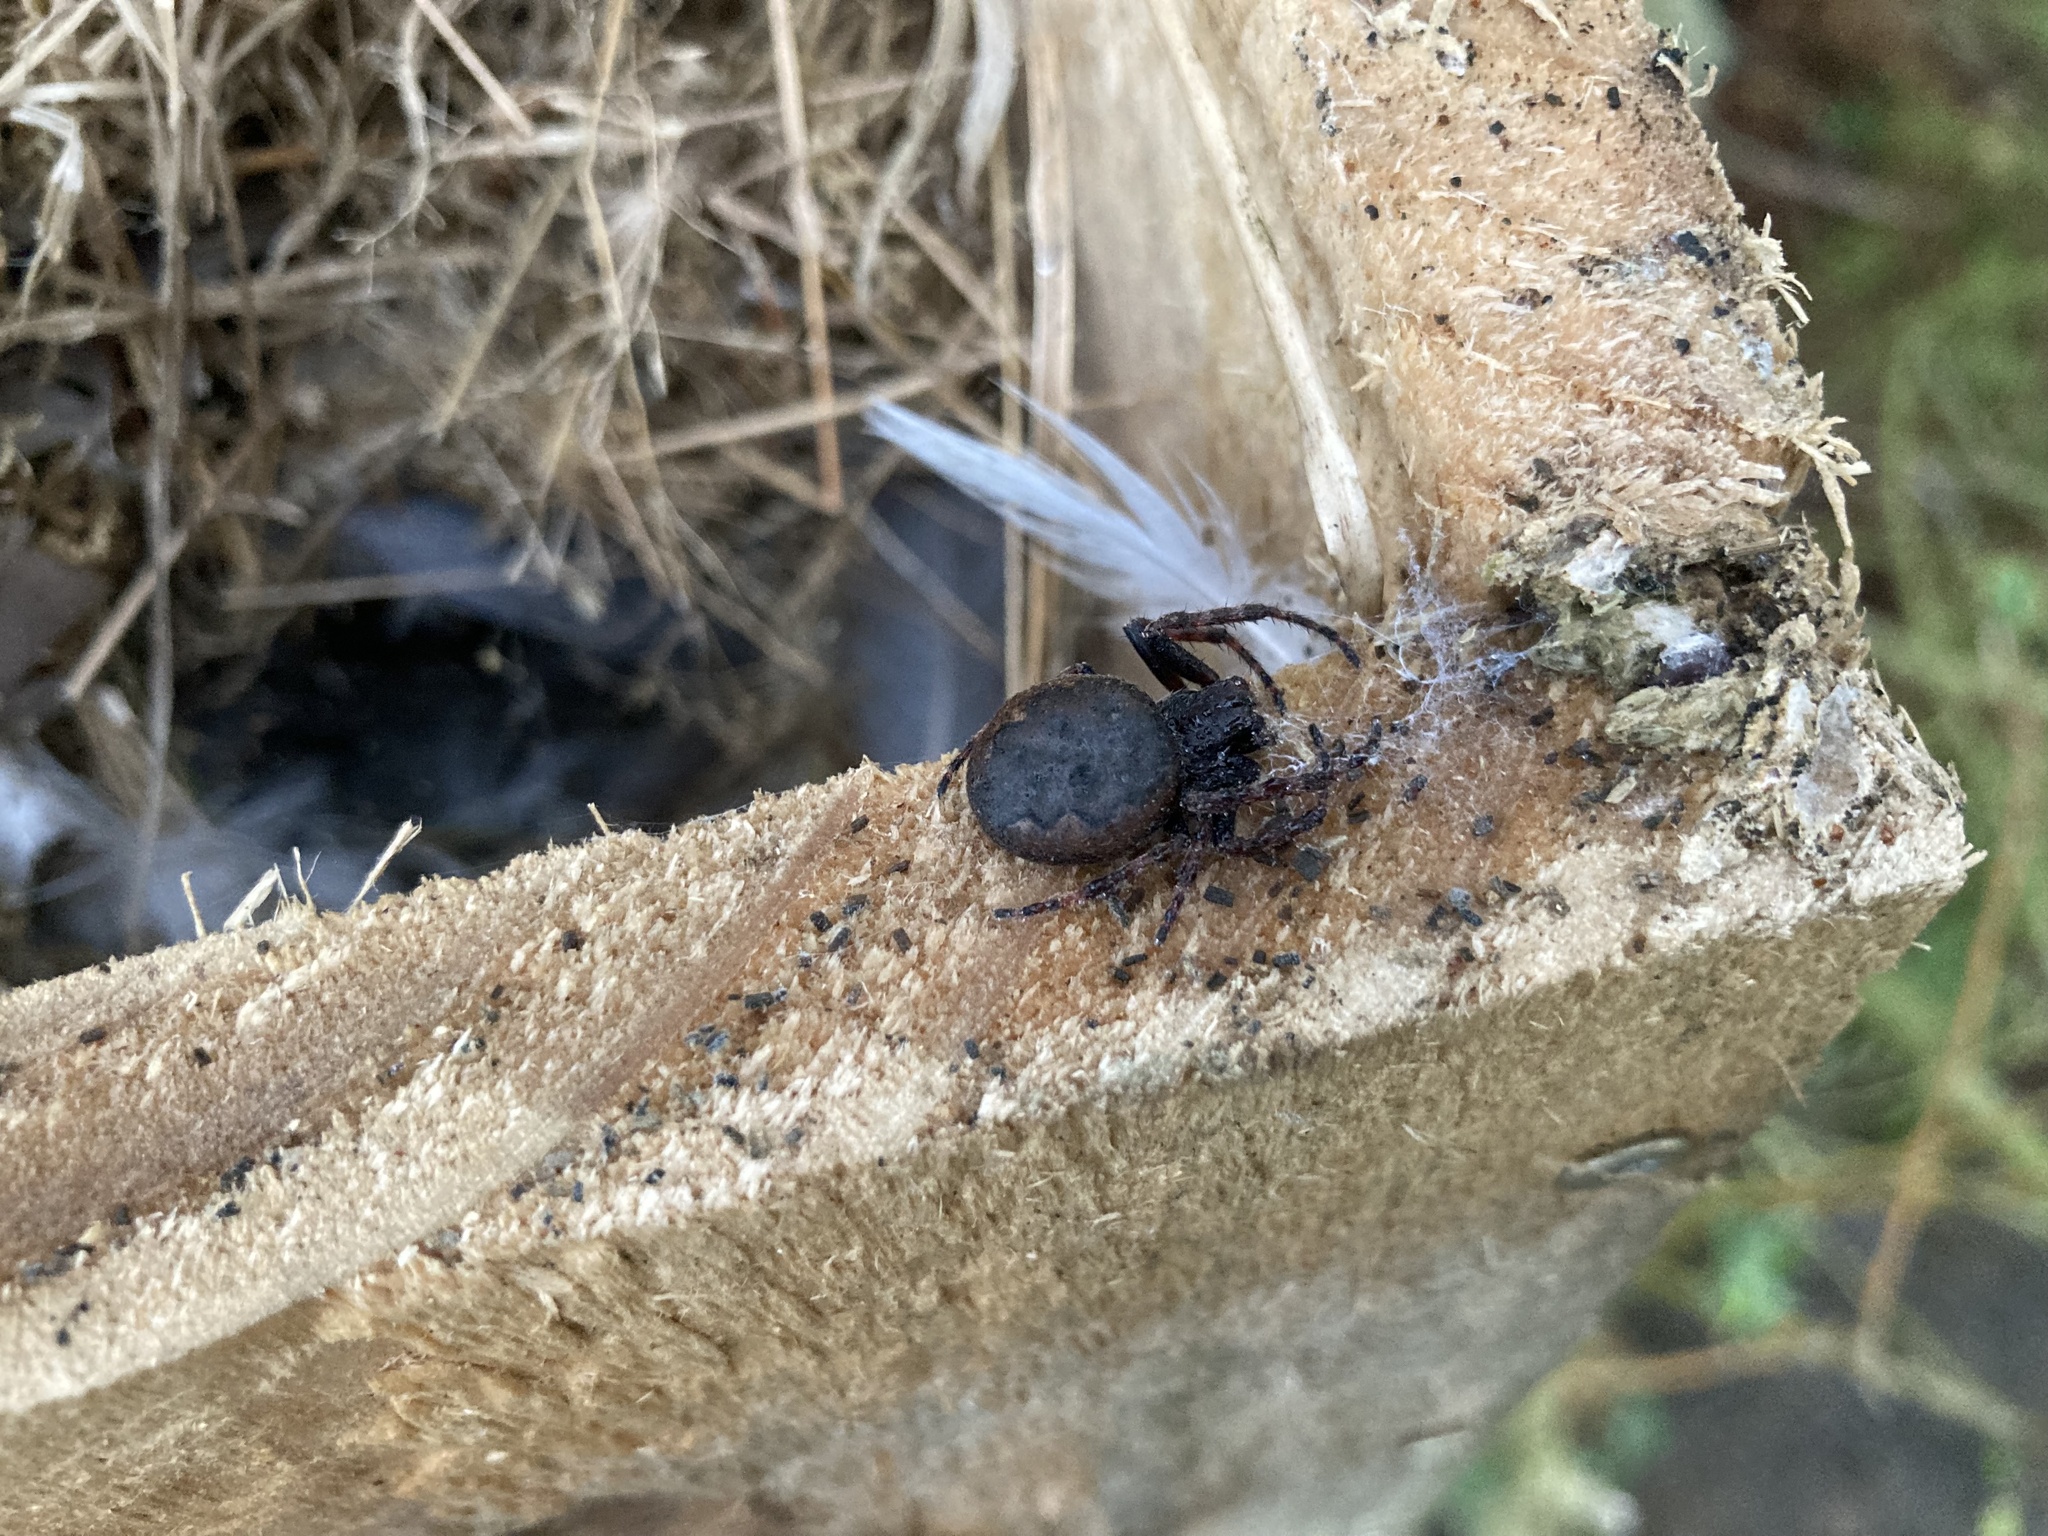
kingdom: Animalia
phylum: Arthropoda
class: Arachnida
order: Araneae
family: Araneidae
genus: Nuctenea
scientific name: Nuctenea umbratica
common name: Toad spider
